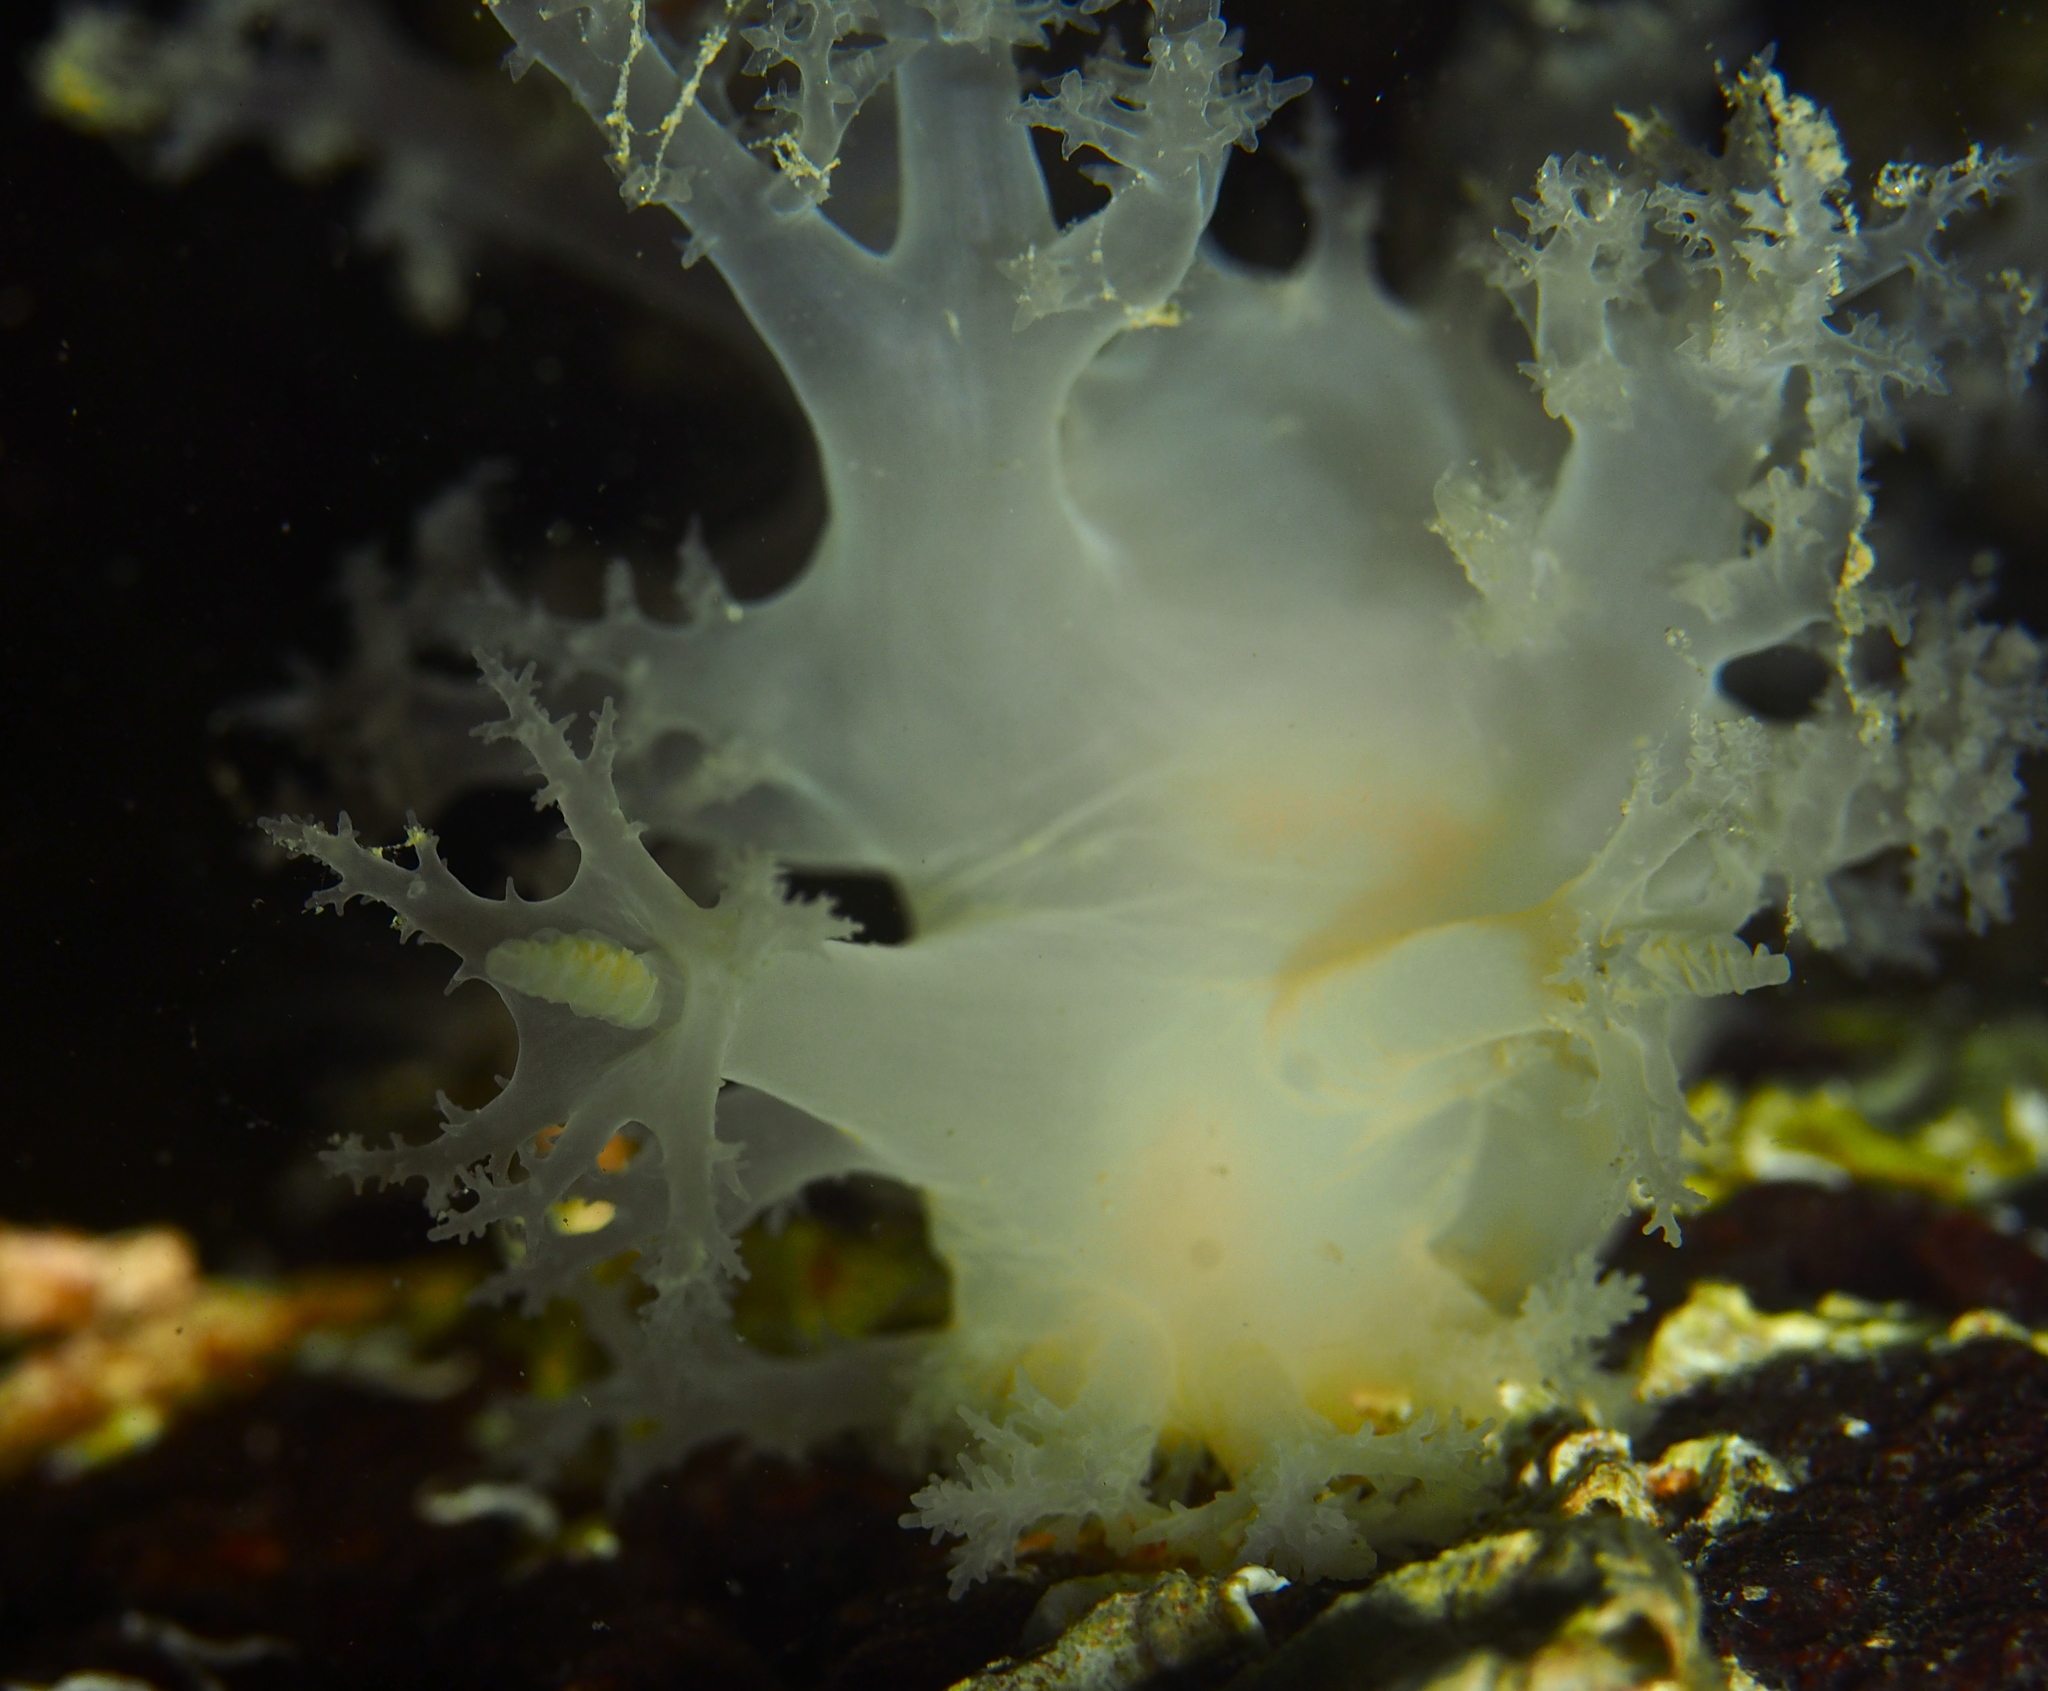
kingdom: Animalia
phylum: Mollusca
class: Gastropoda
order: Nudibranchia
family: Dendronotidae
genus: Dendronotus
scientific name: Dendronotus lacteus
